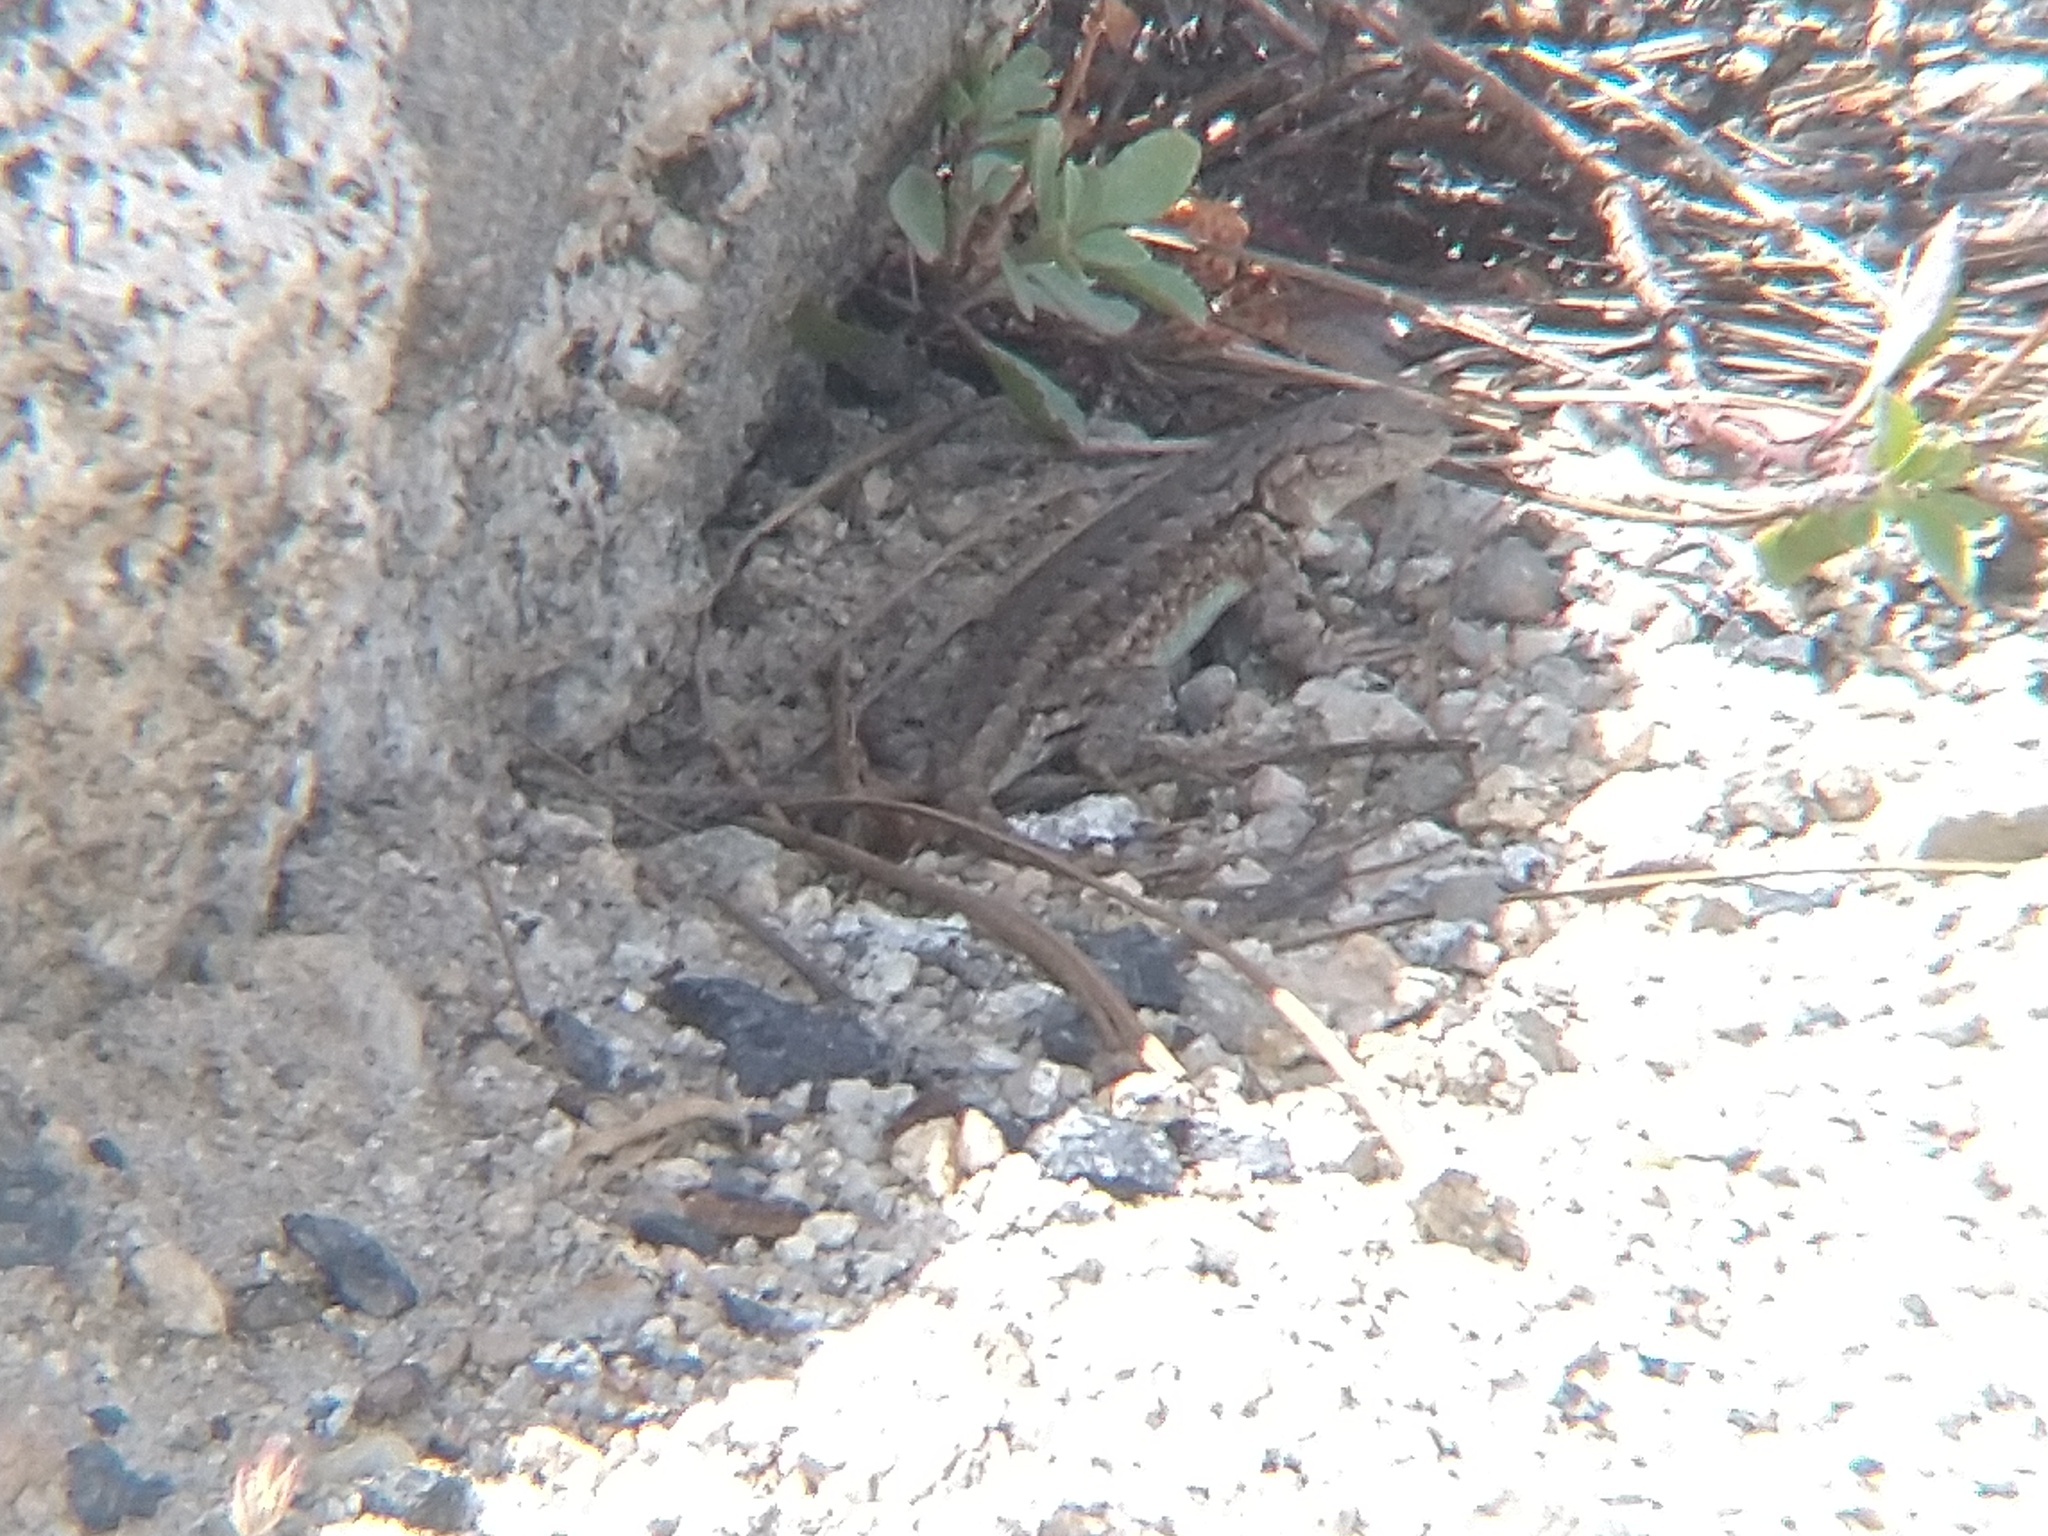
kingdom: Animalia
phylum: Chordata
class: Squamata
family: Phrynosomatidae
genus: Sceloporus
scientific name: Sceloporus graciosus
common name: Sagebrush lizard
